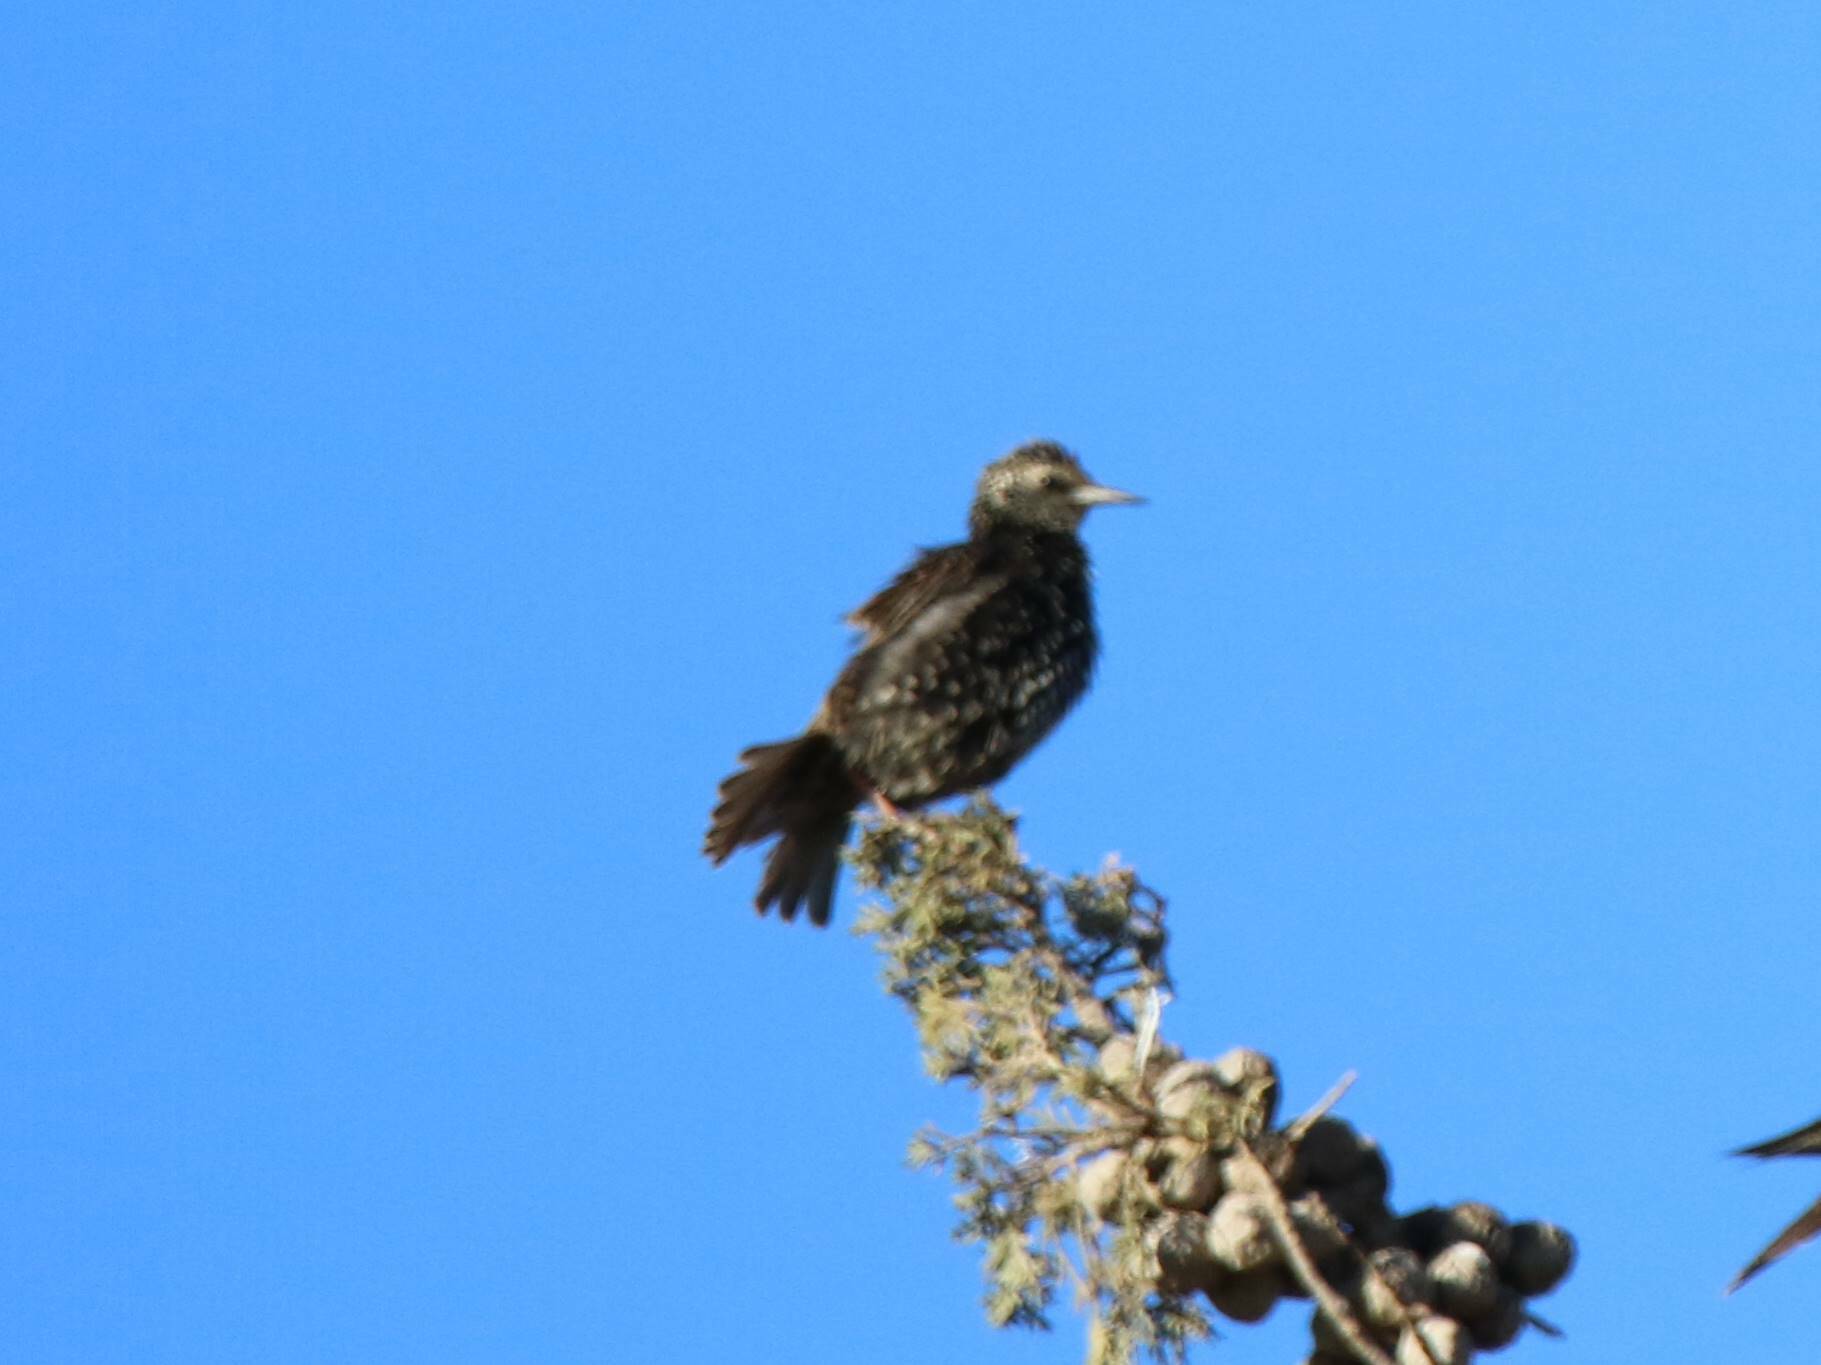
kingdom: Animalia
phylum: Chordata
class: Aves
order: Passeriformes
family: Sturnidae
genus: Sturnus
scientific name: Sturnus vulgaris
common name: Common starling
